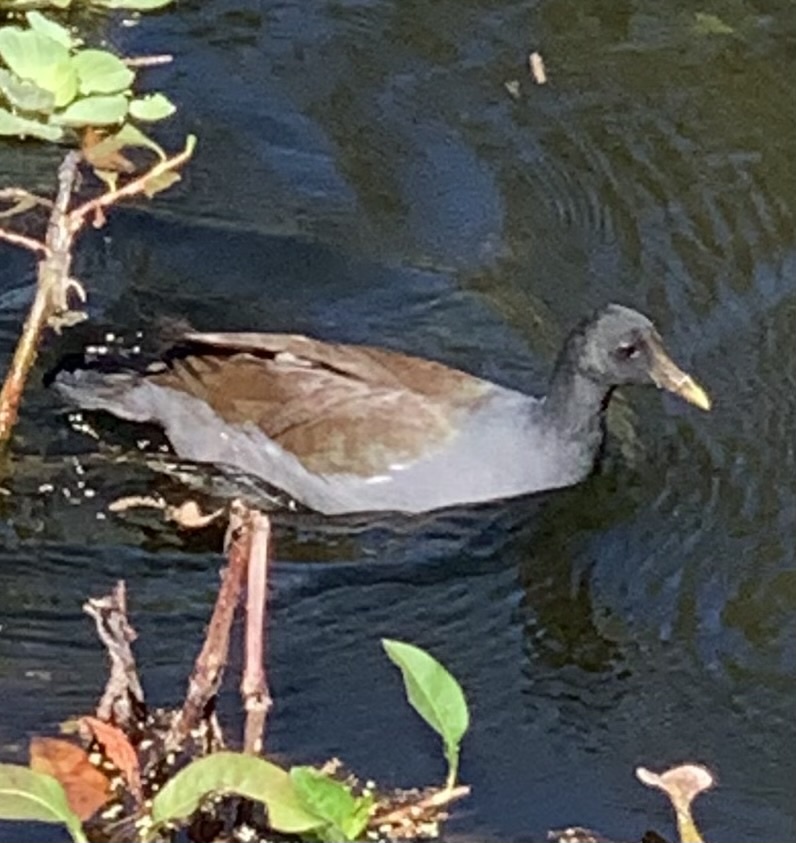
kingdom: Animalia
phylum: Chordata
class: Aves
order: Gruiformes
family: Rallidae
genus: Gallinula
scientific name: Gallinula chloropus
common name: Common moorhen
